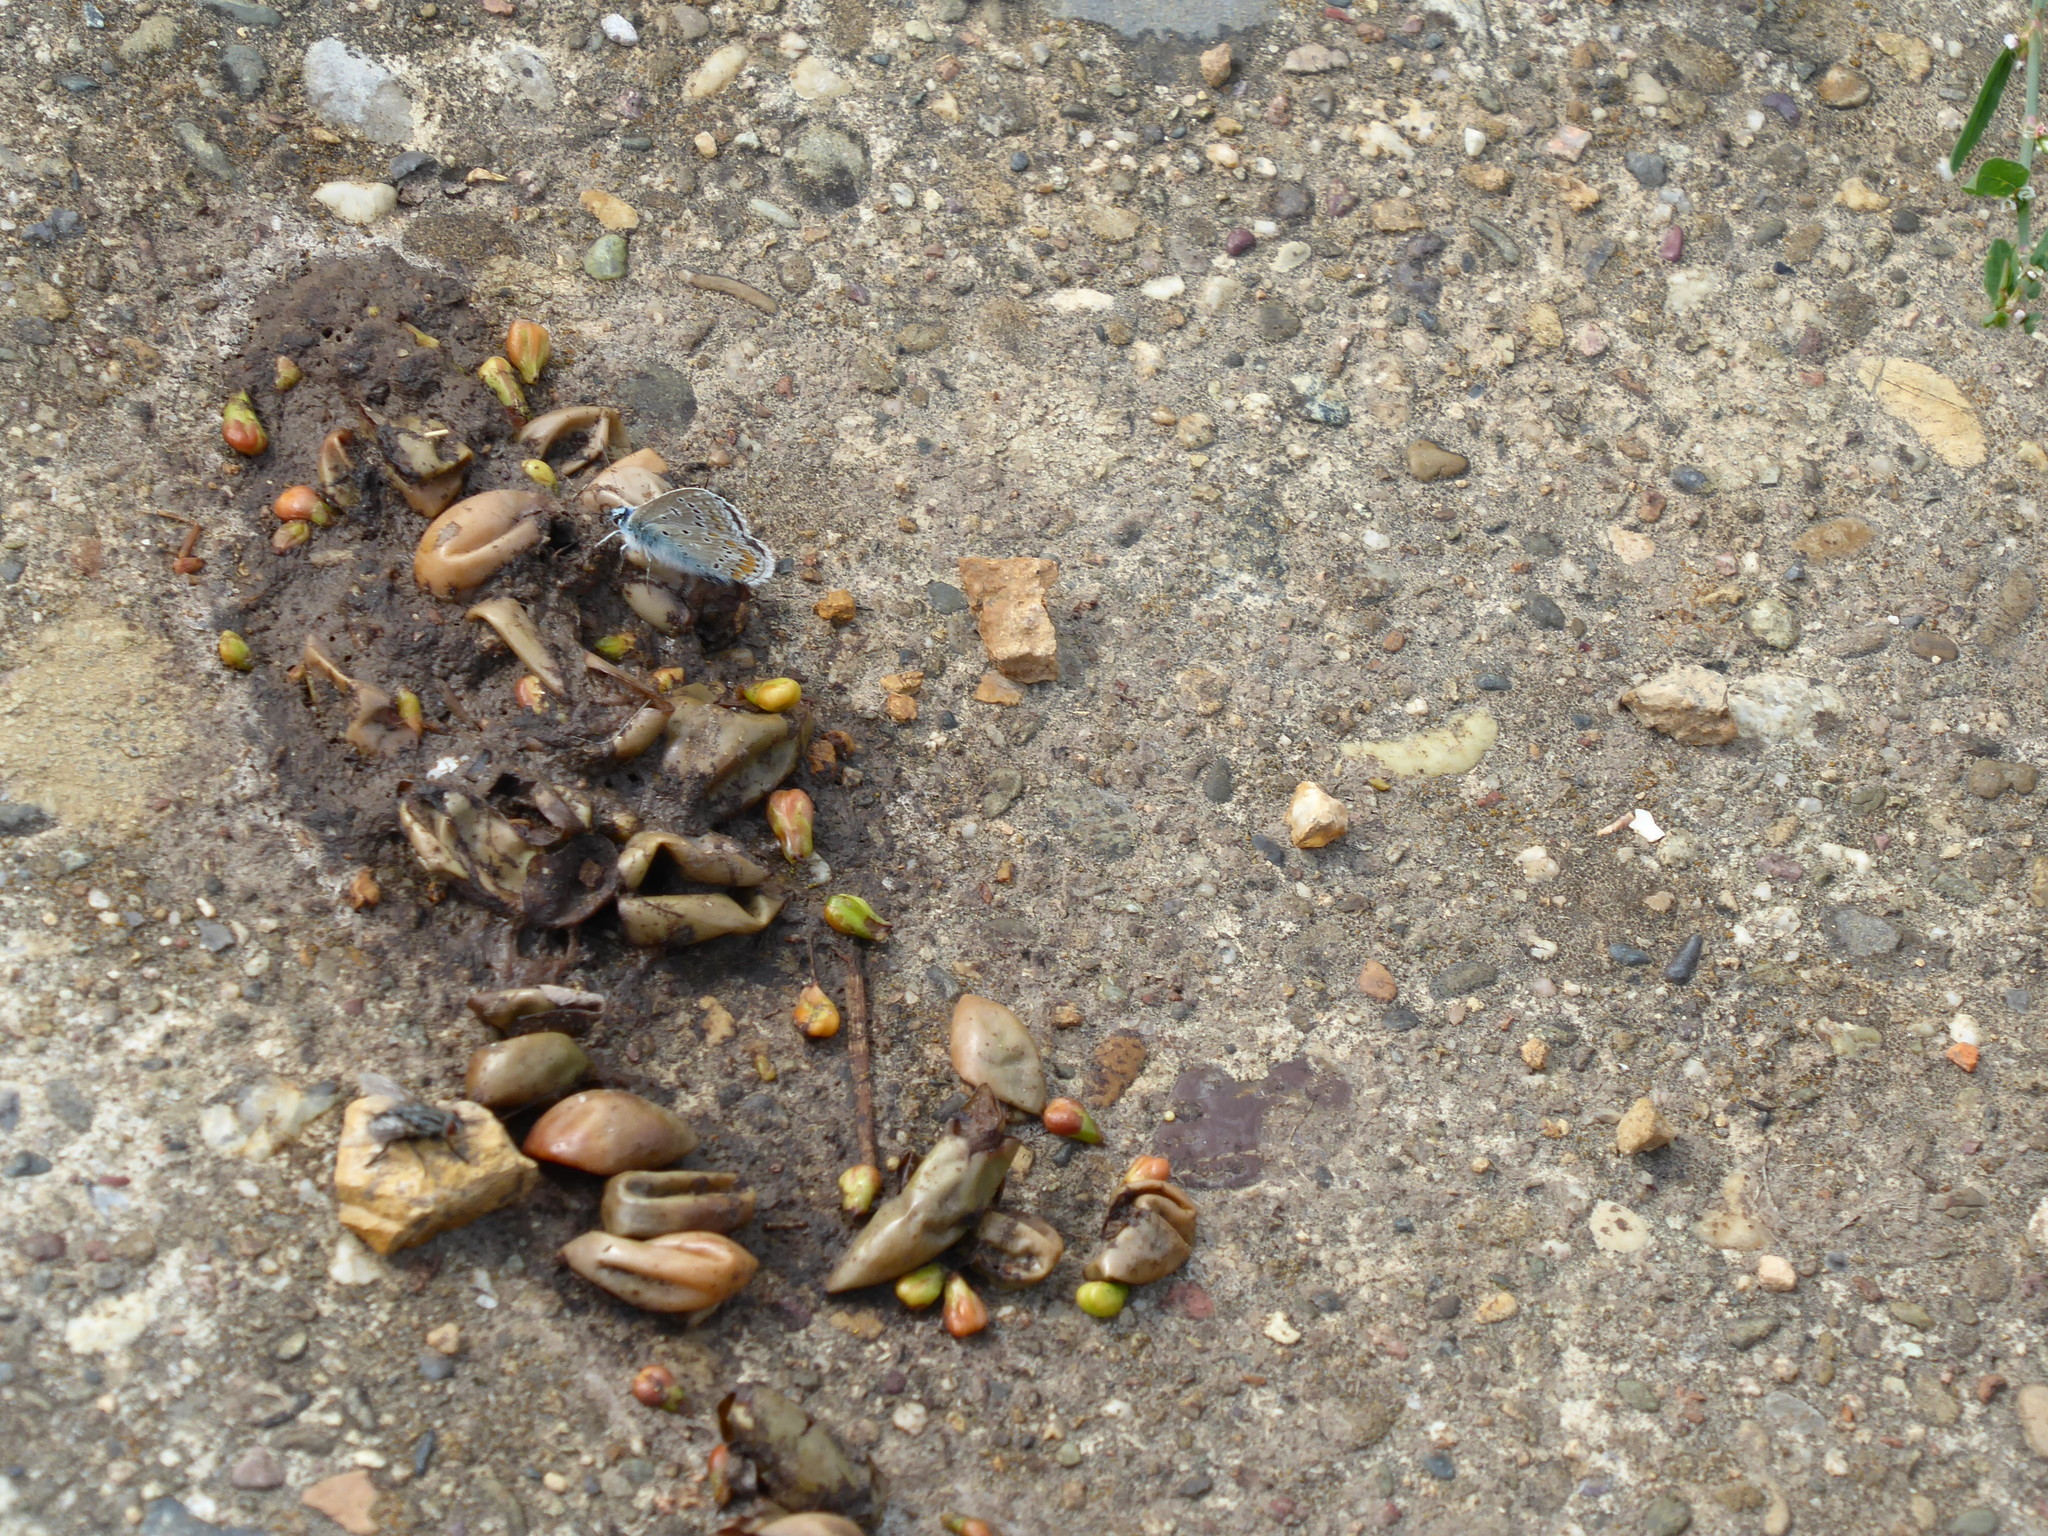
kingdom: Animalia
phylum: Arthropoda
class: Insecta
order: Lepidoptera
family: Lycaenidae
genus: Polyommatus
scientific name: Polyommatus icarus
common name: Common blue
